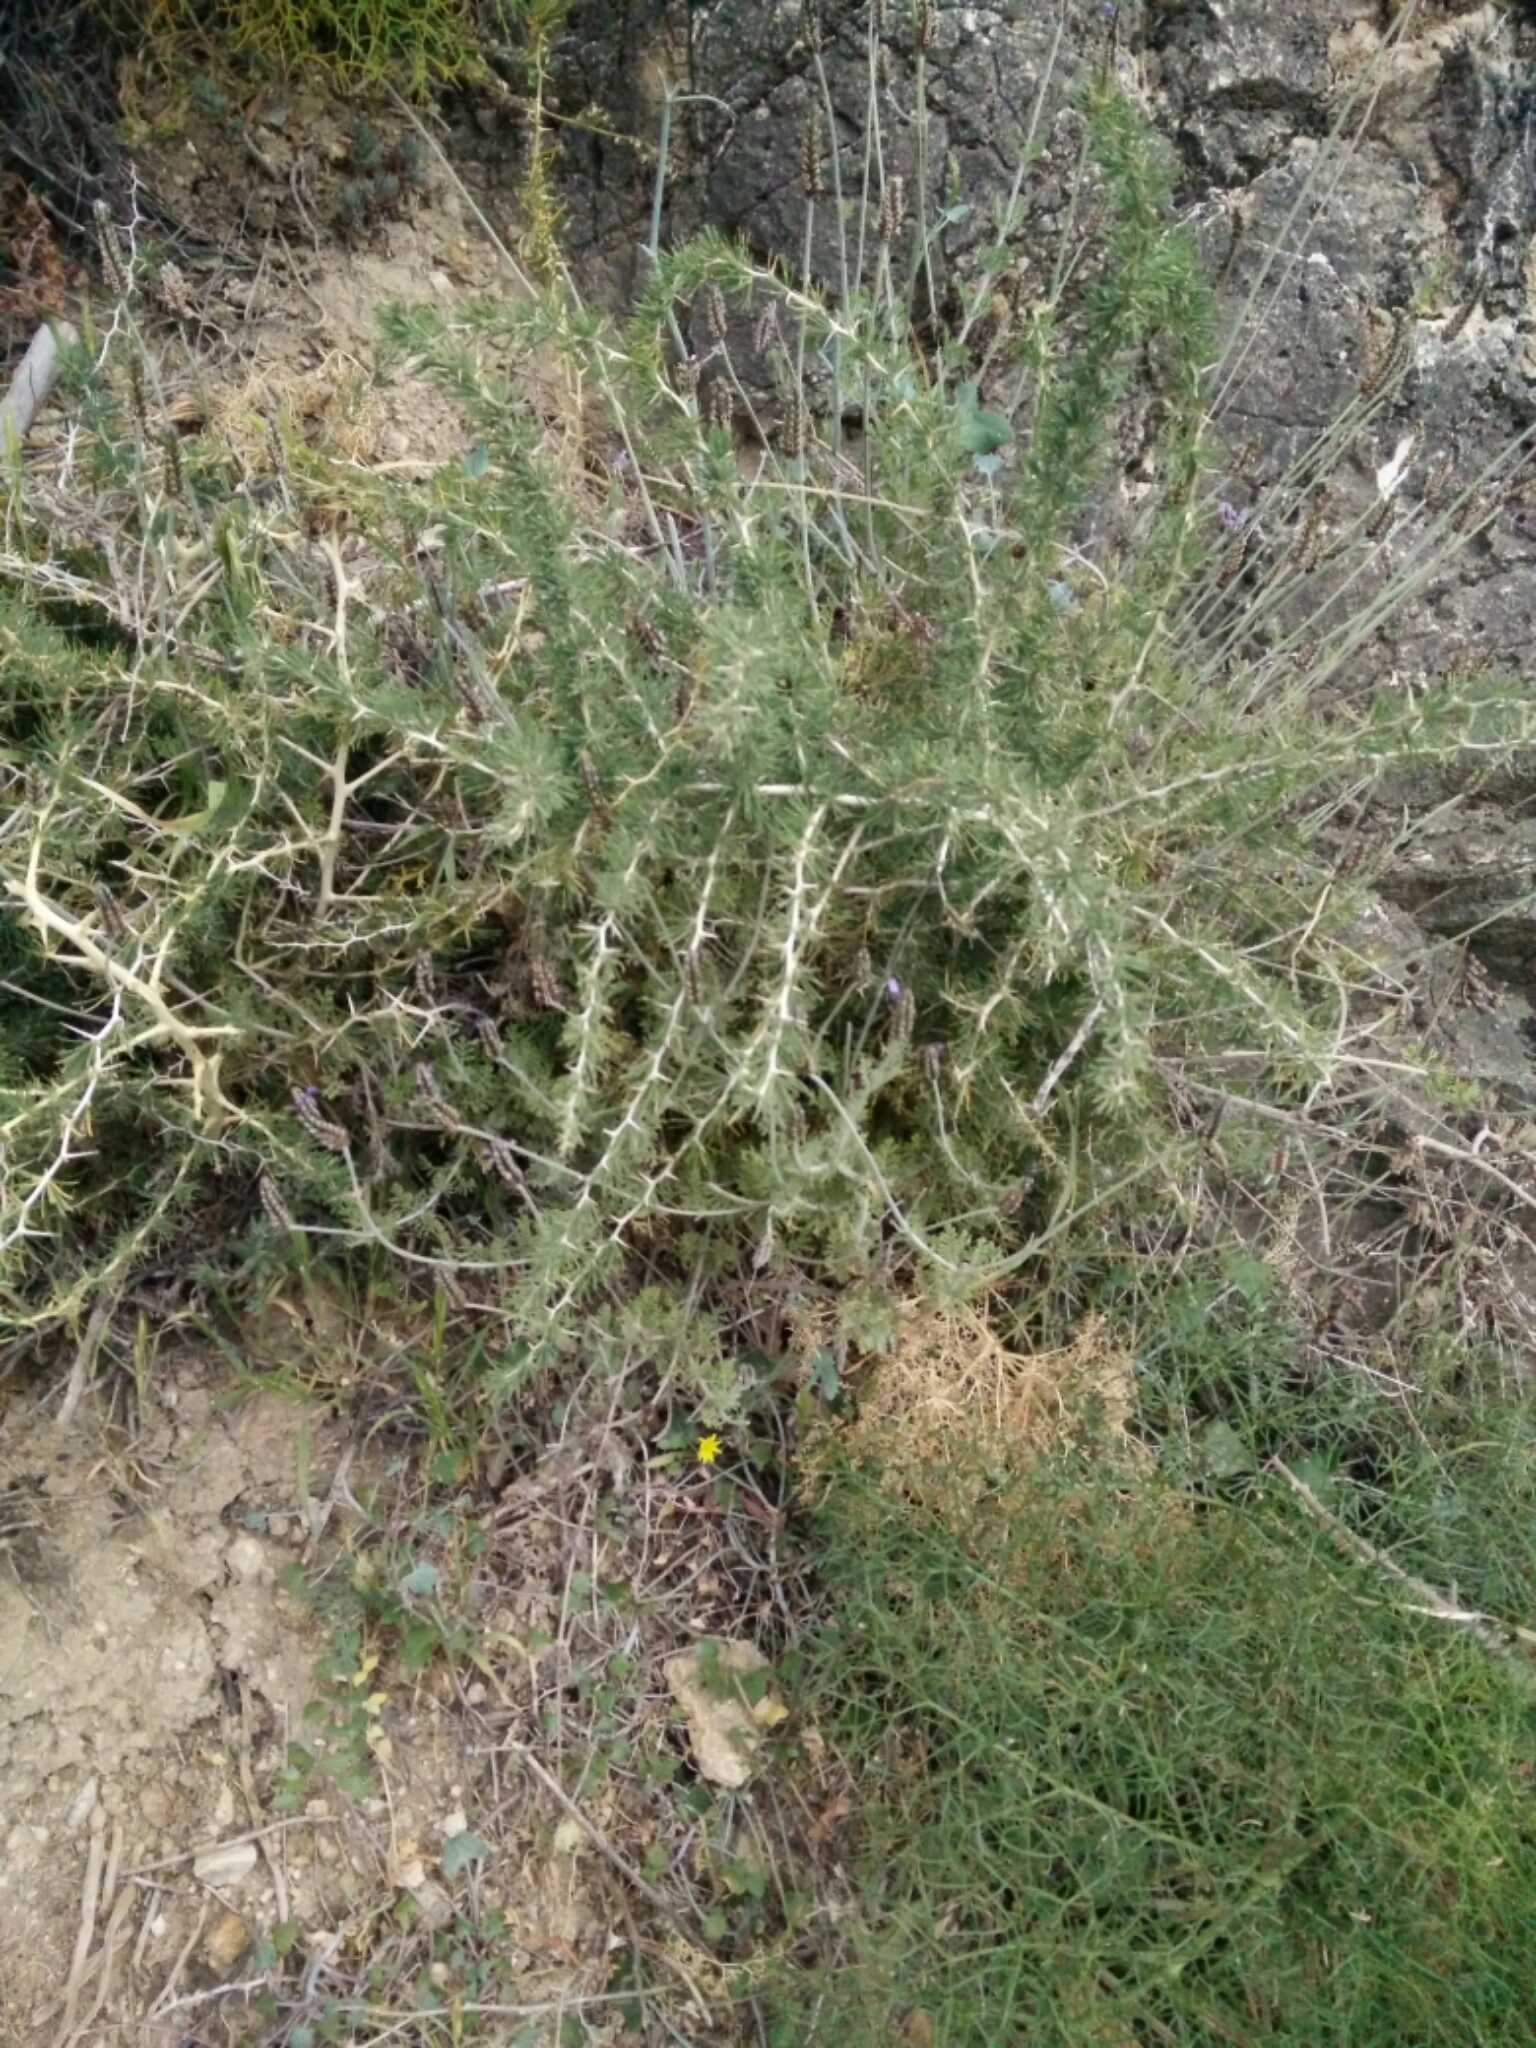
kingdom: Plantae
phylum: Tracheophyta
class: Liliopsida
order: Asparagales
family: Asparagaceae
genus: Asparagus
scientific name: Asparagus albus
